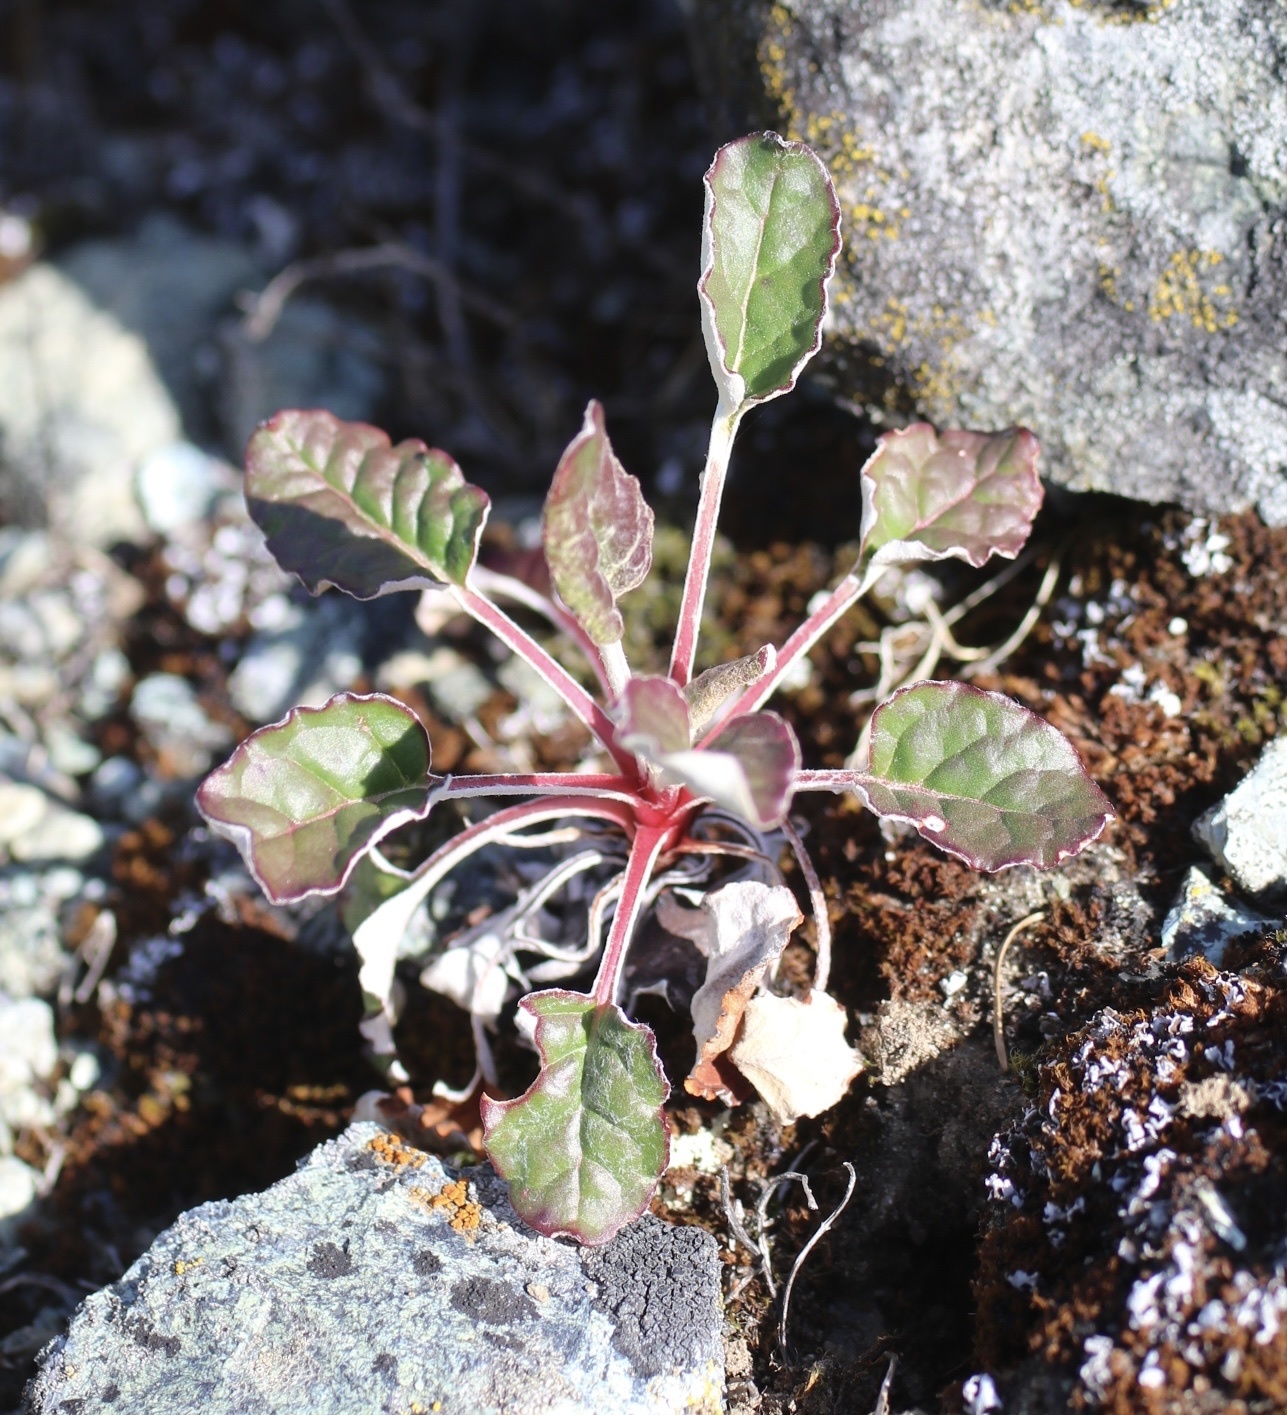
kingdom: Plantae
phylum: Tracheophyta
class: Magnoliopsida
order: Caryophyllales
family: Polygonaceae
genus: Eriogonum
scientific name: Eriogonum nudum
